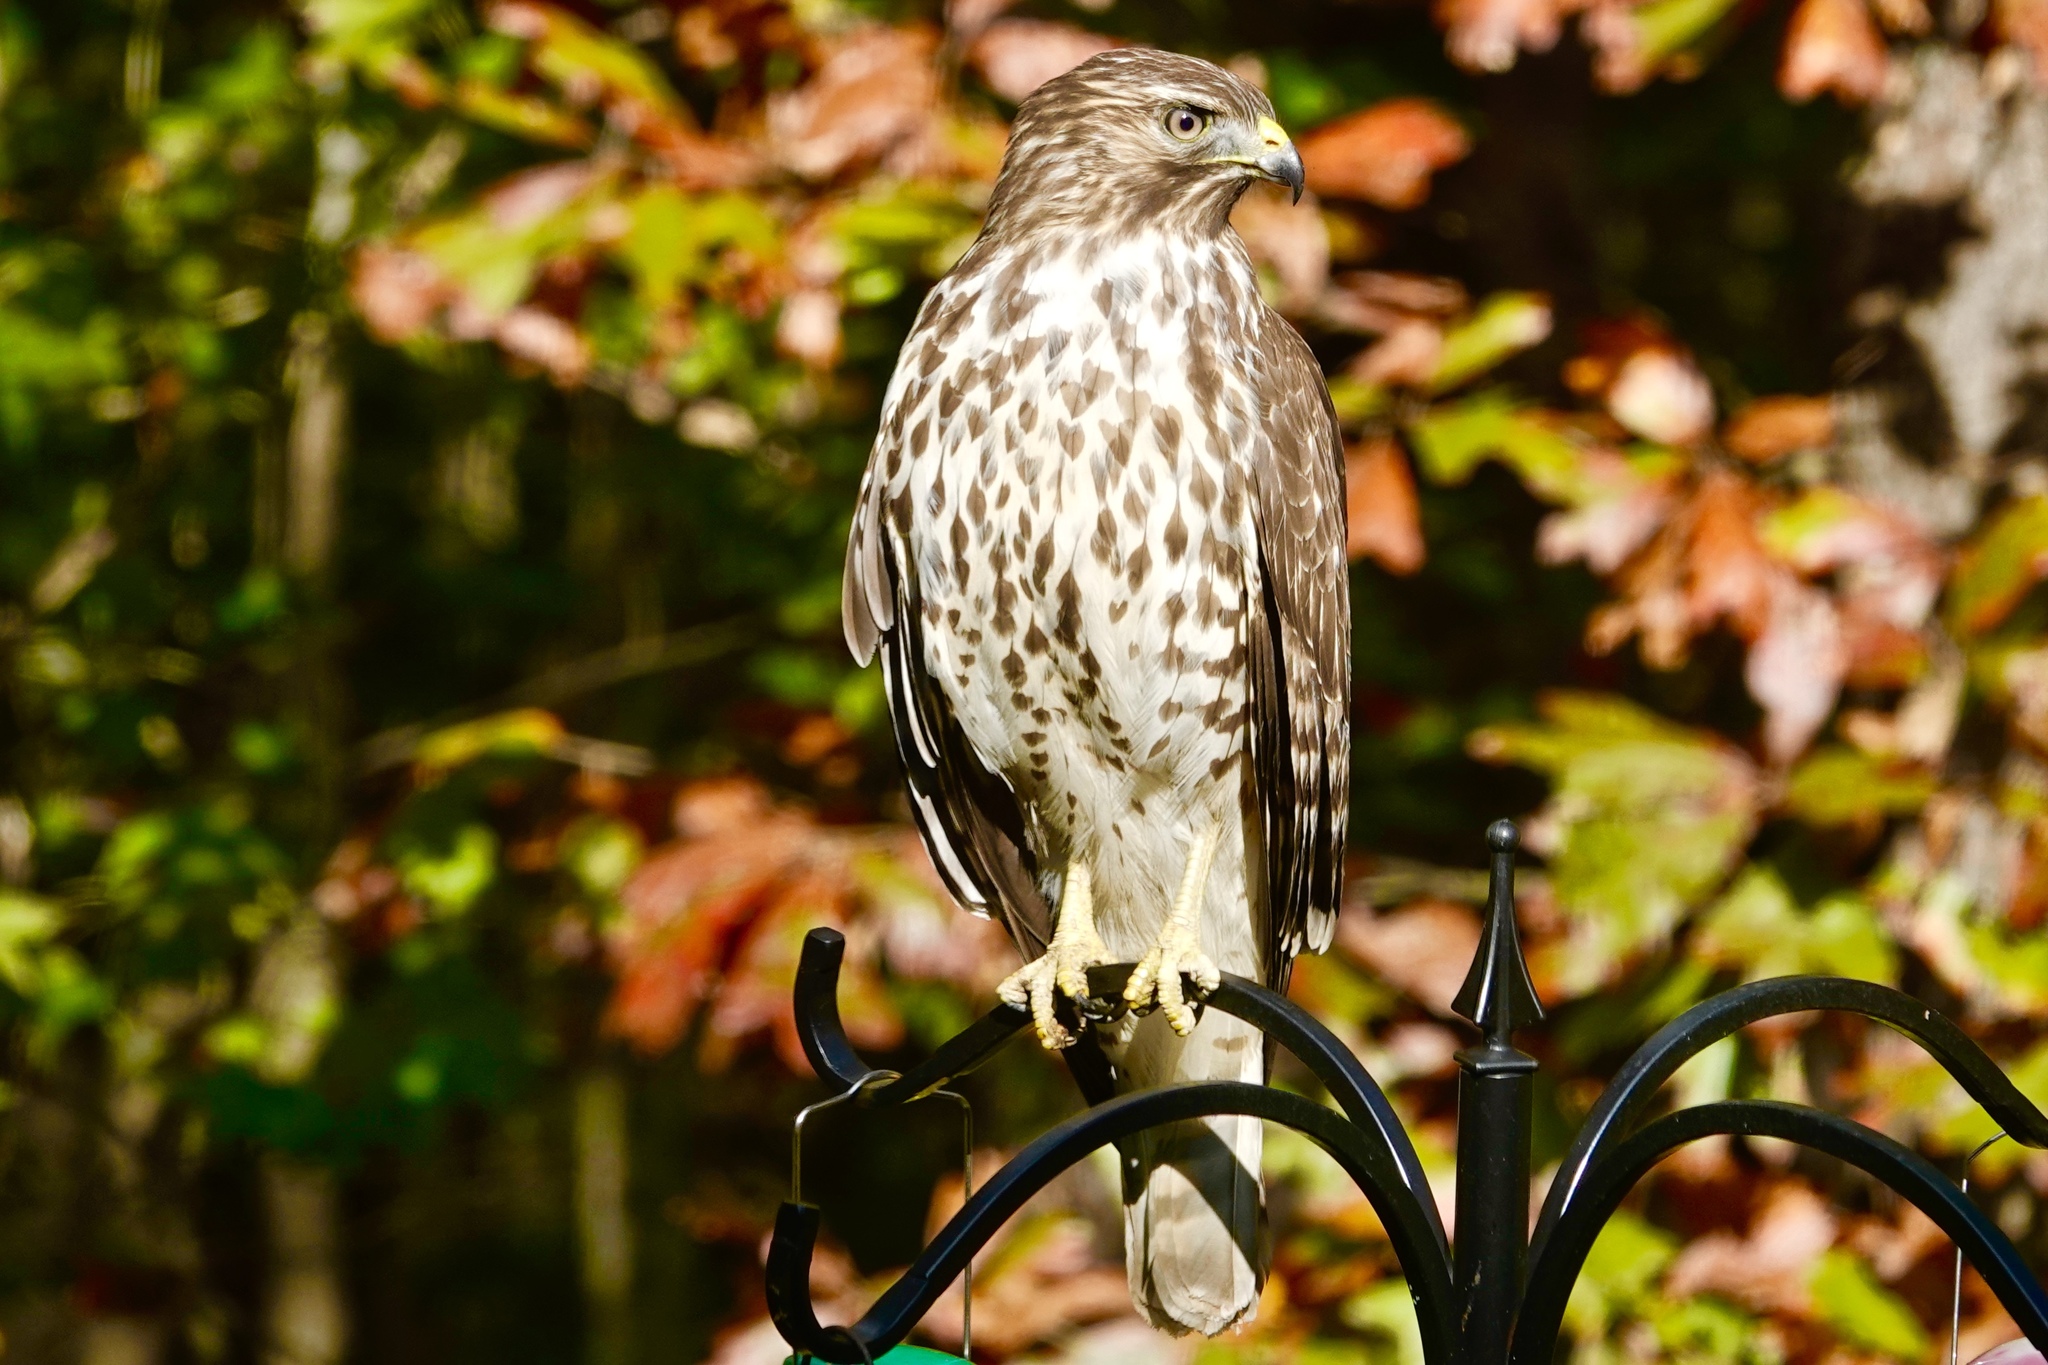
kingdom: Animalia
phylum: Chordata
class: Aves
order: Accipitriformes
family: Accipitridae
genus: Buteo
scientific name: Buteo lineatus
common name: Red-shouldered hawk
